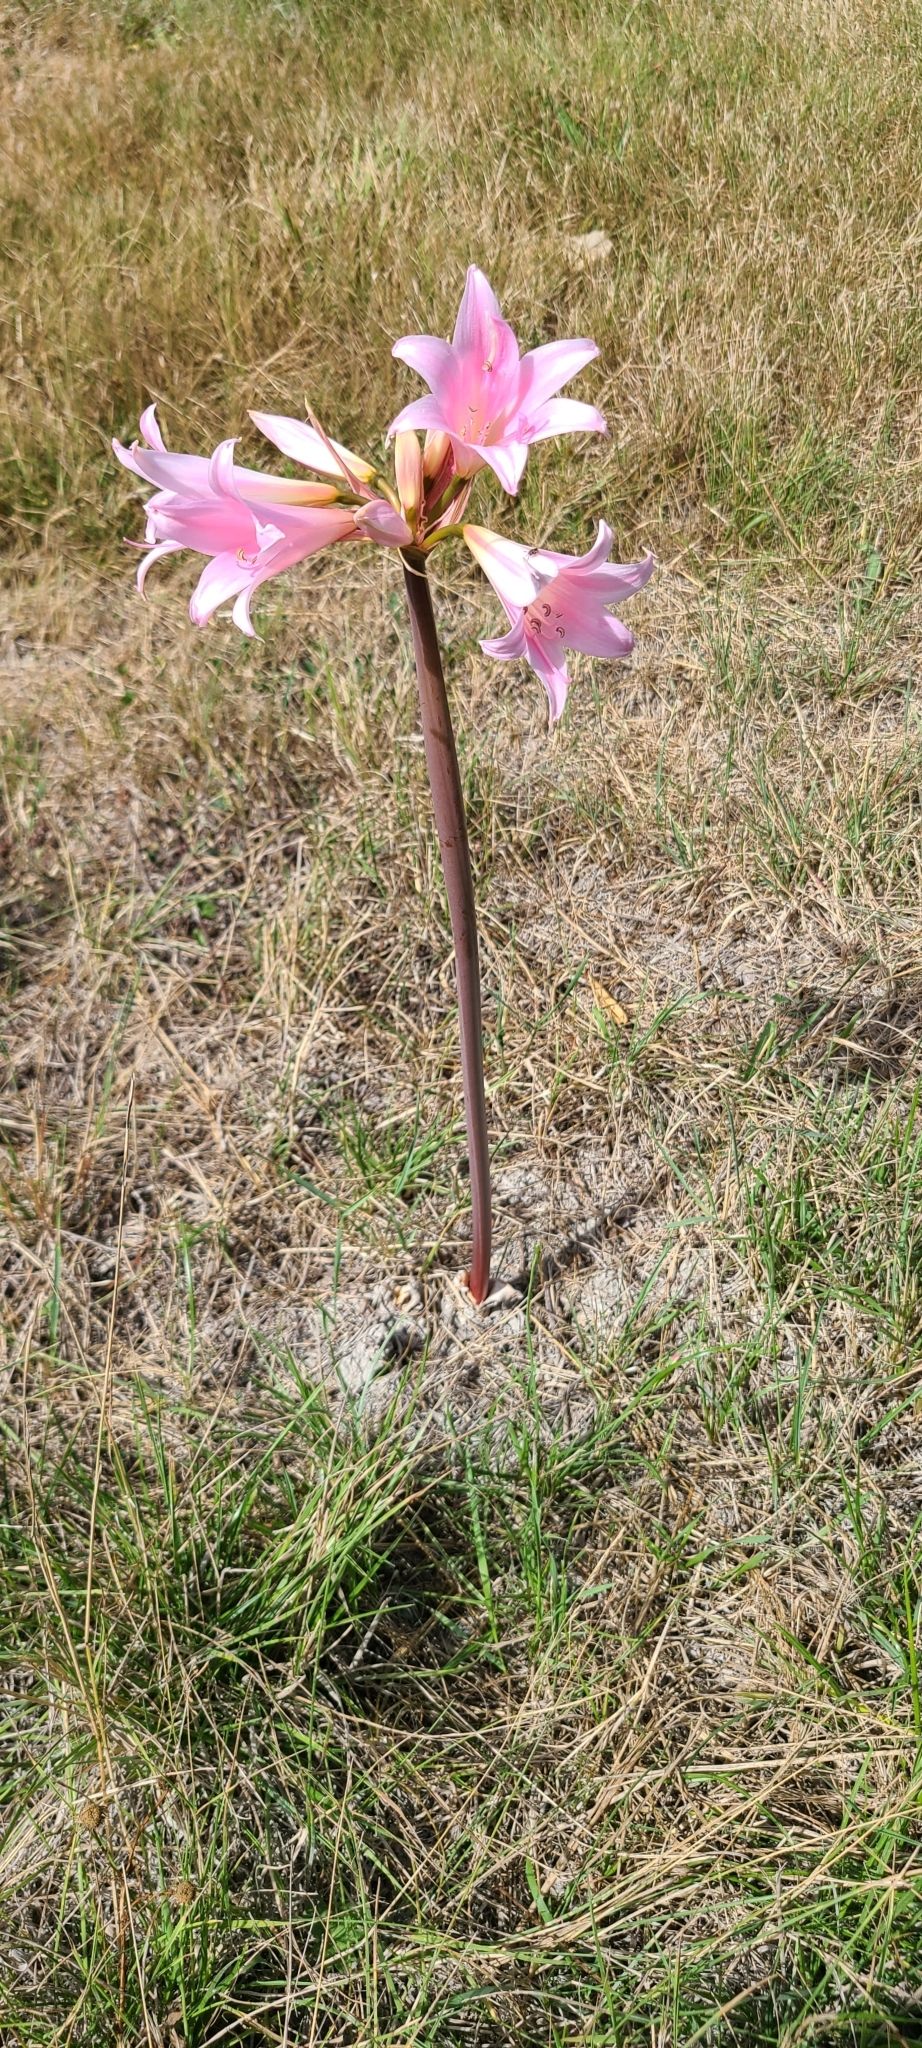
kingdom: Plantae
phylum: Tracheophyta
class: Liliopsida
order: Asparagales
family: Amaryllidaceae
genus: Amaryllis
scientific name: Amaryllis belladonna
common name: Jersey lily
